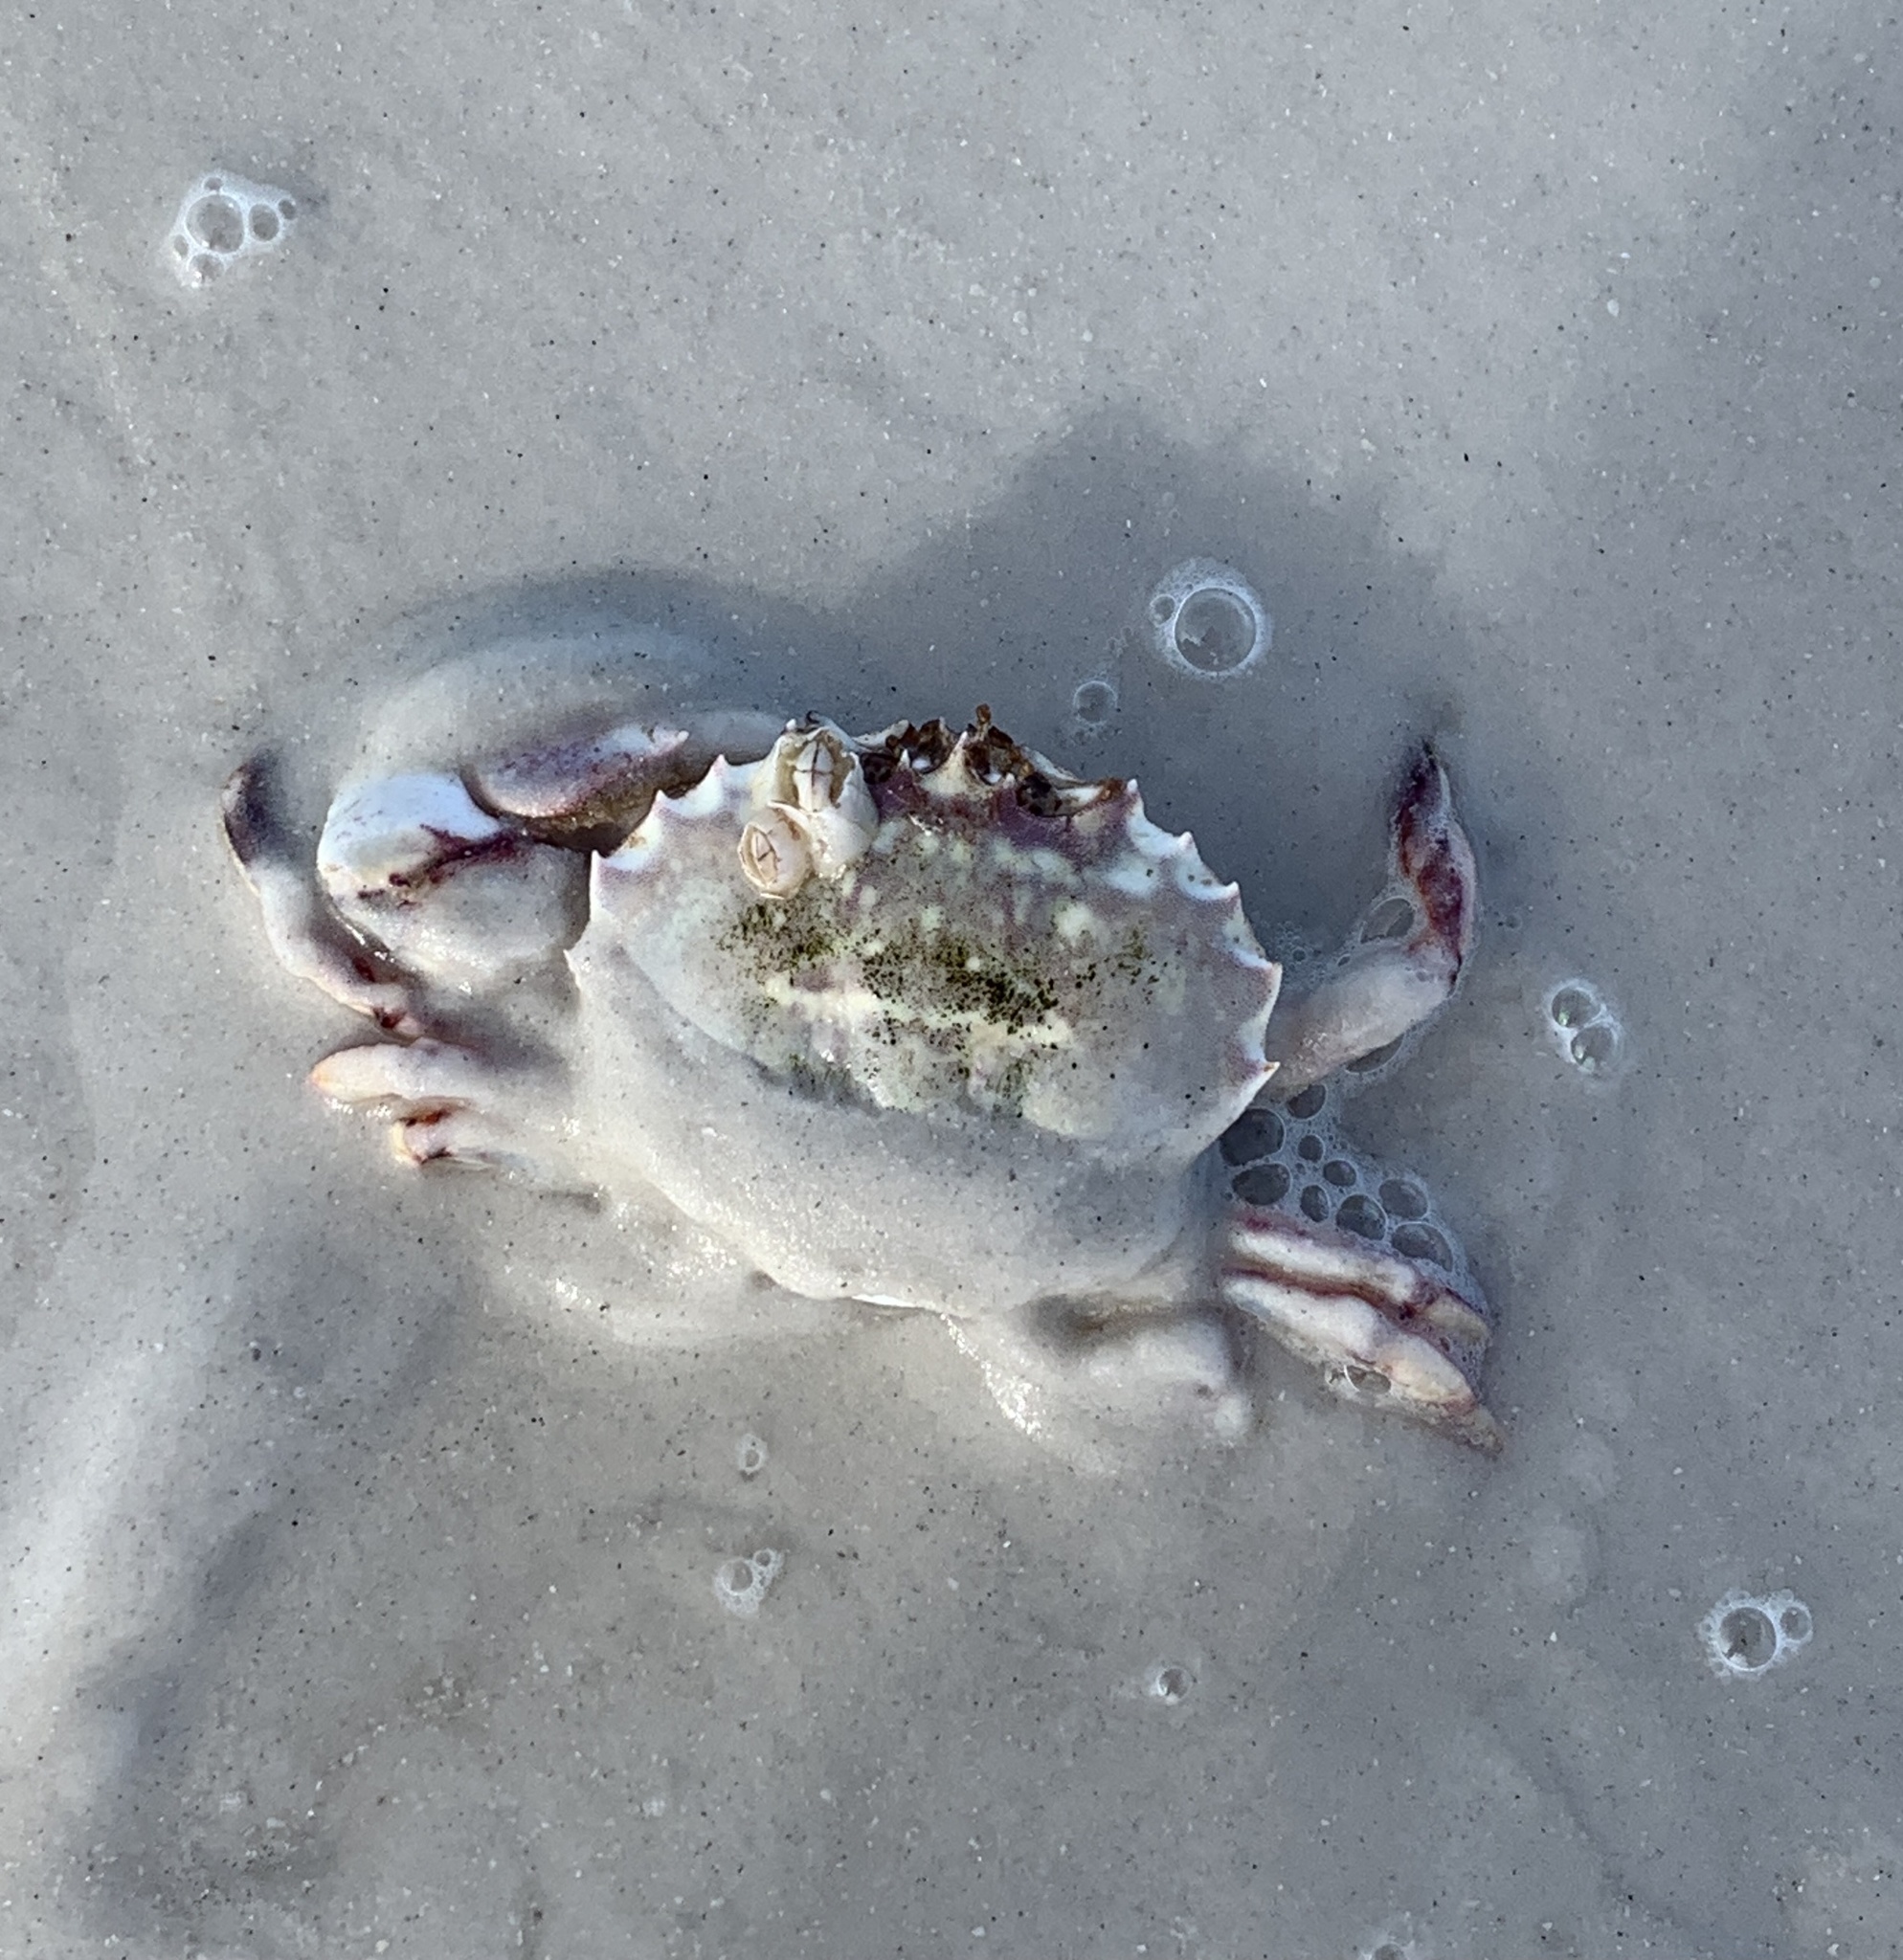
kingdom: Animalia
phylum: Arthropoda
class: Malacostraca
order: Decapoda
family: Ovalipidae
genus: Ovalipes
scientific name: Ovalipes floridanus
